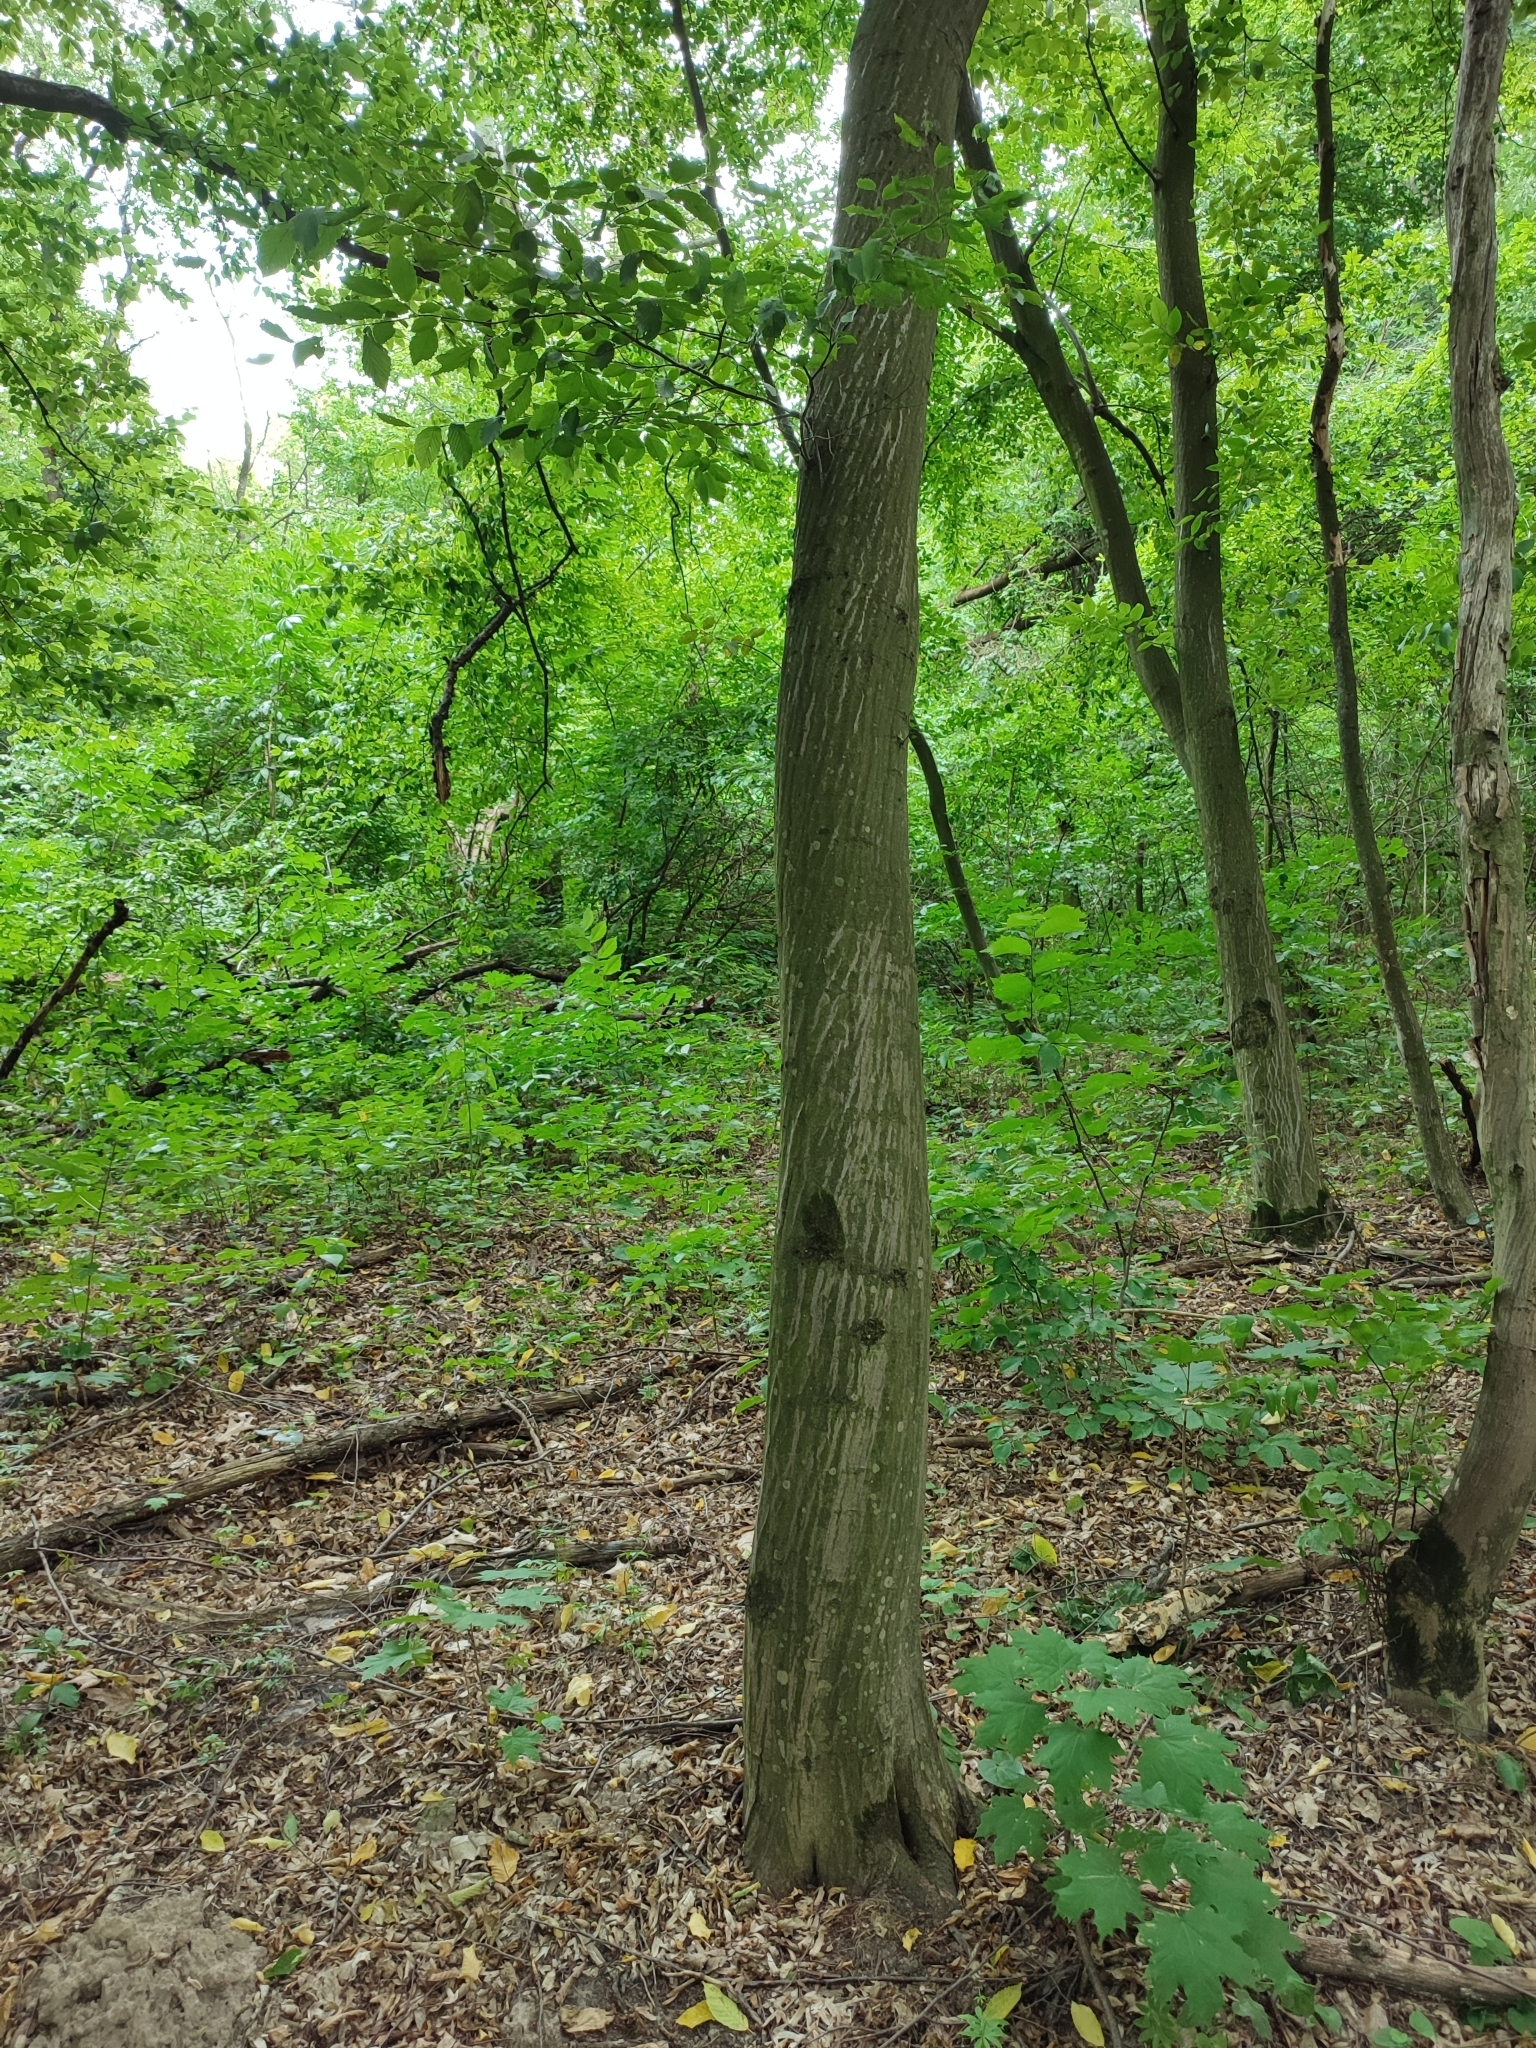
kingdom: Plantae
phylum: Tracheophyta
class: Magnoliopsida
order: Fagales
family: Betulaceae
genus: Carpinus
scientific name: Carpinus betulus
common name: Hornbeam
